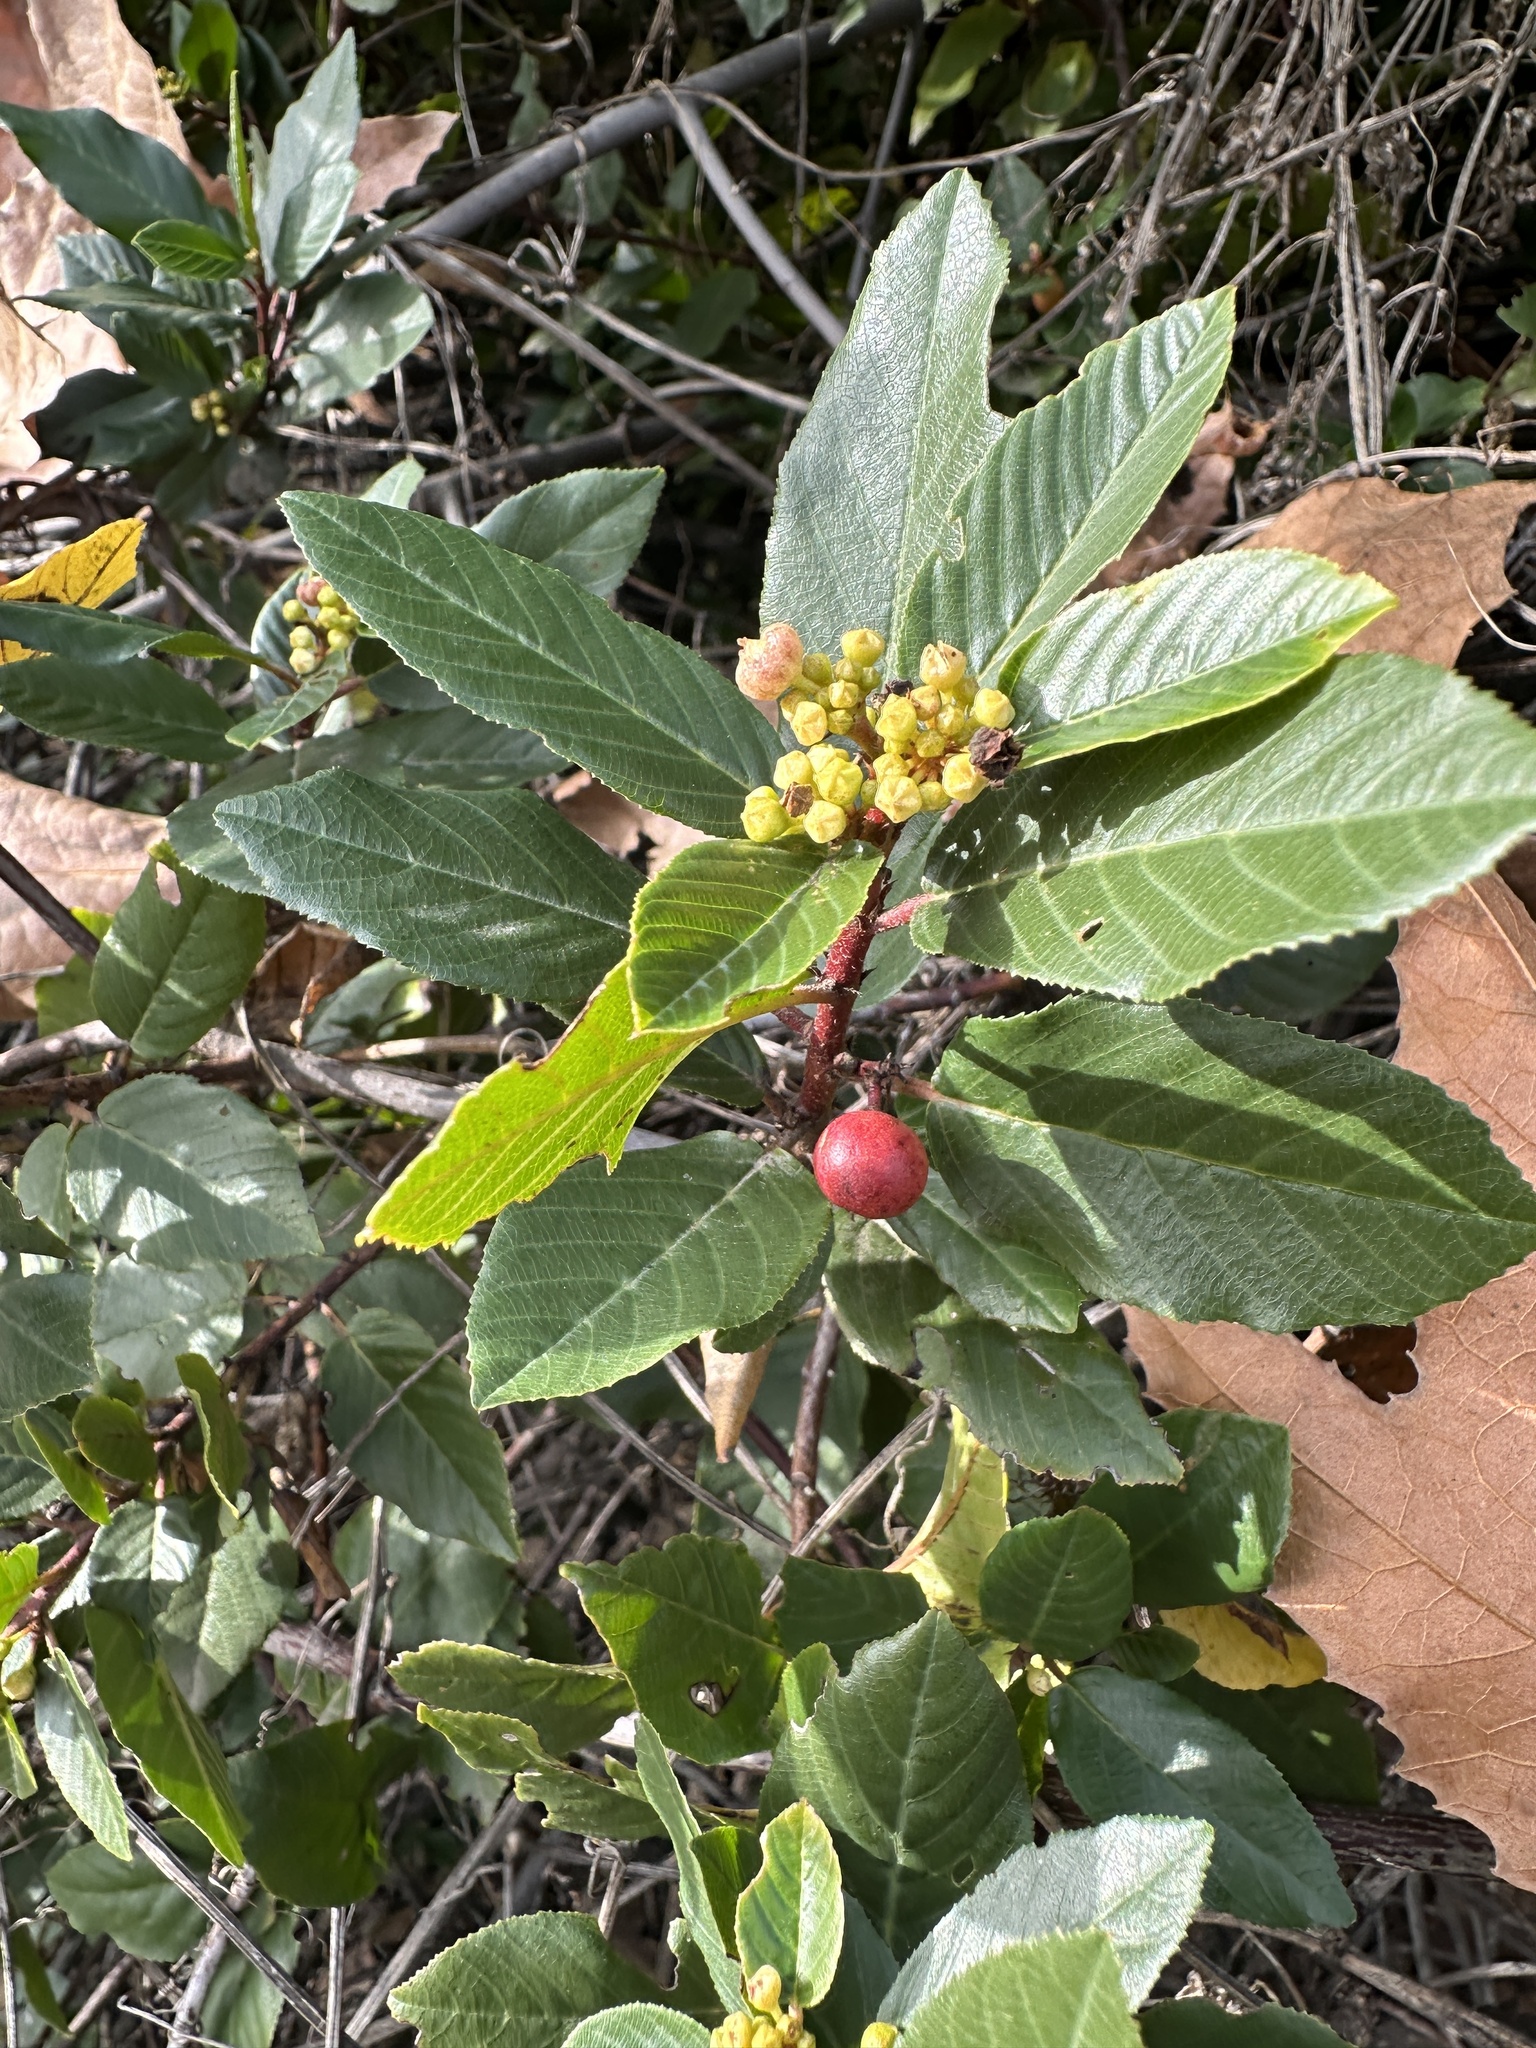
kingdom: Plantae
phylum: Tracheophyta
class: Magnoliopsida
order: Rosales
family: Rhamnaceae
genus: Frangula
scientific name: Frangula californica
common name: California buckthorn
